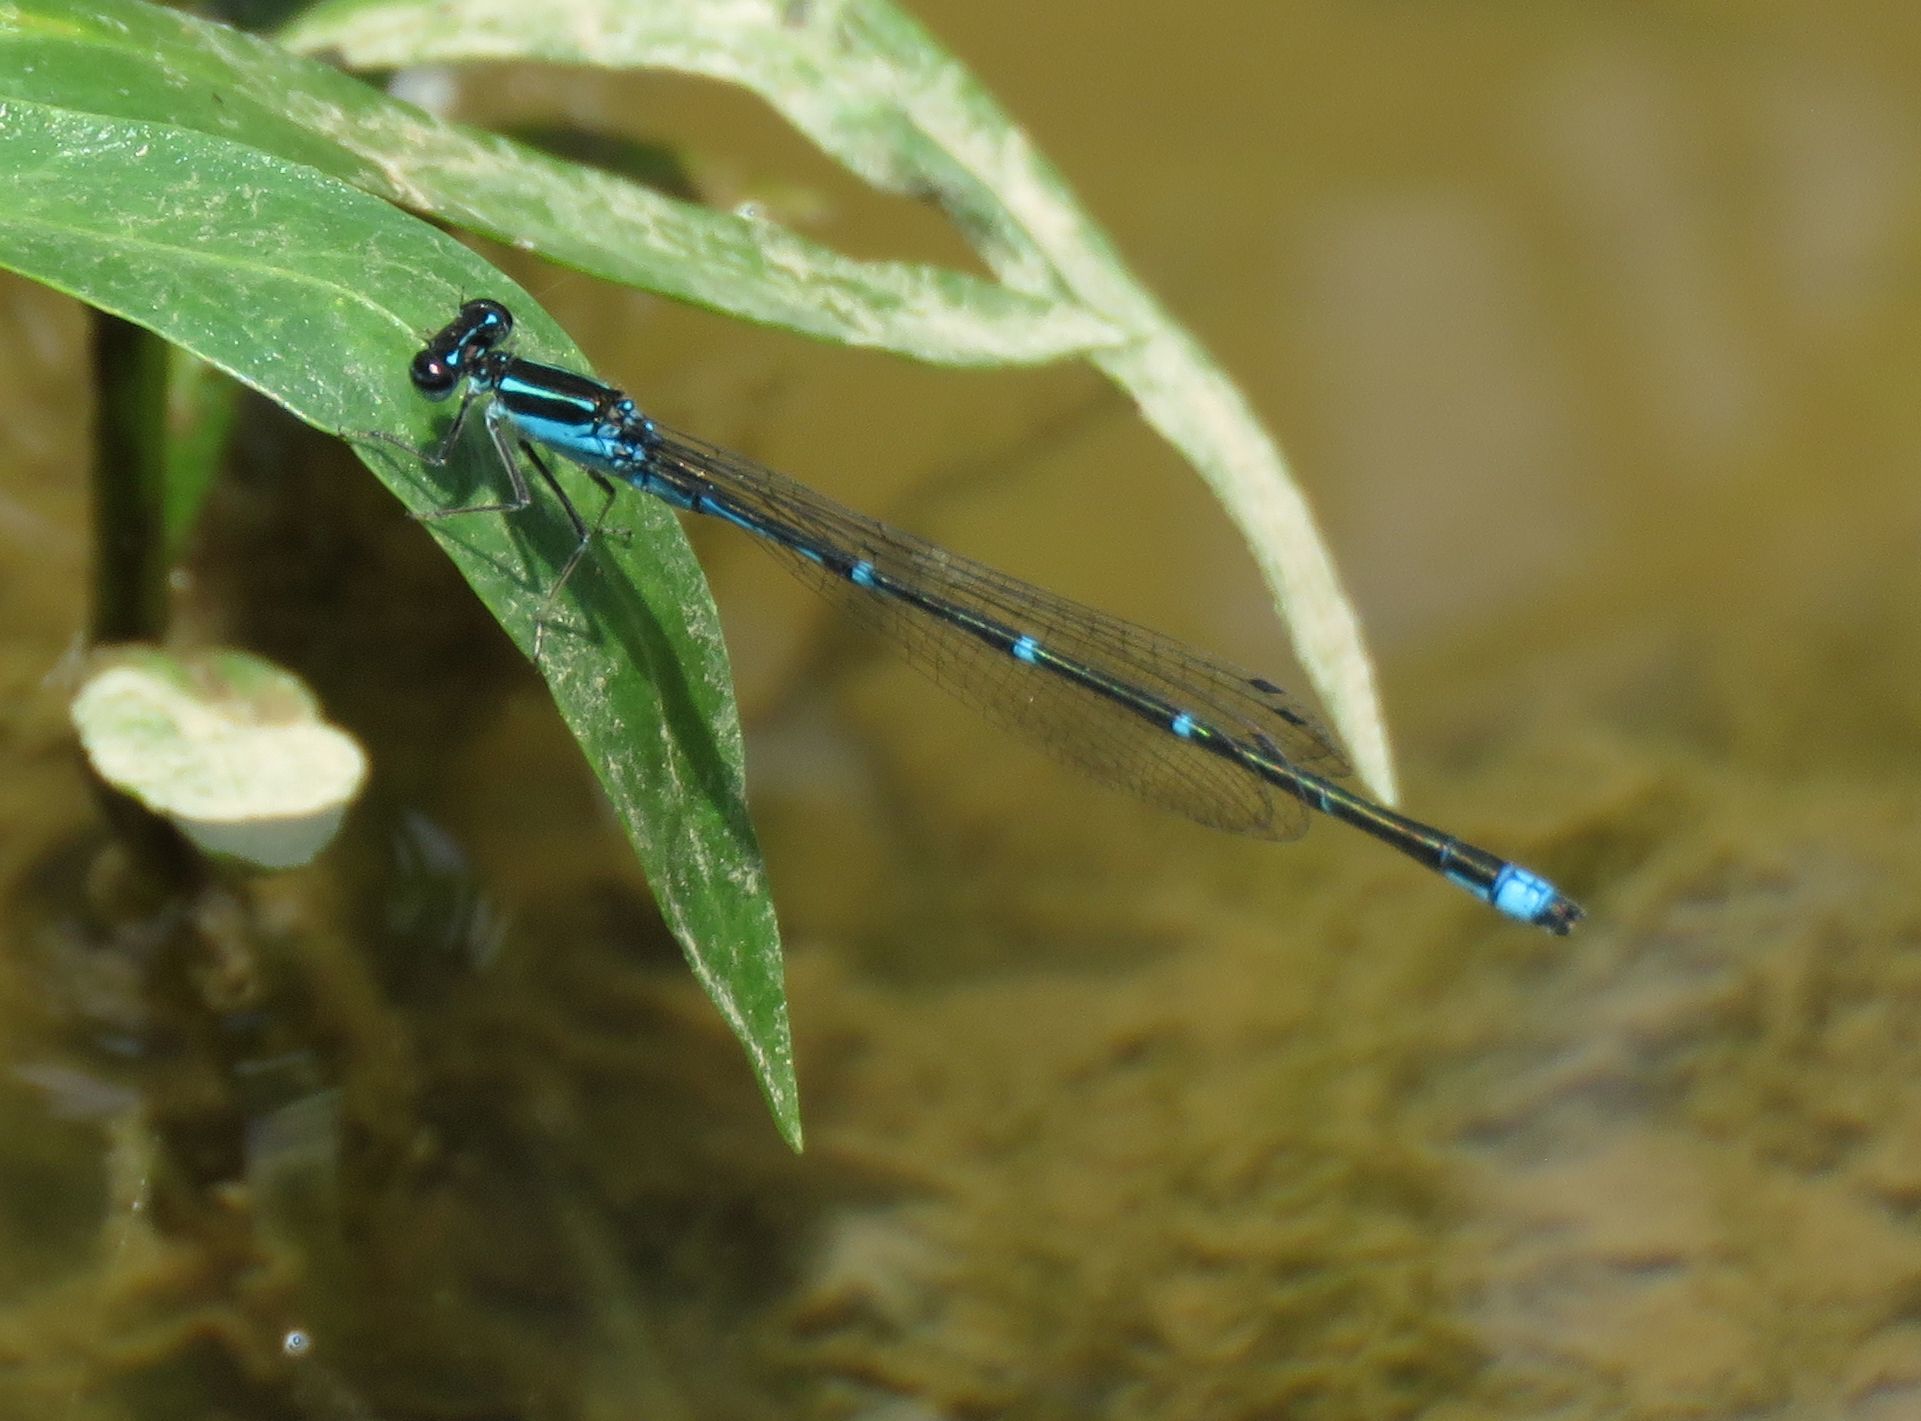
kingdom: Animalia
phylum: Arthropoda
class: Insecta
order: Odonata
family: Coenagrionidae
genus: Enallagma
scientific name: Enallagma exsulans
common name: Stream bluet
